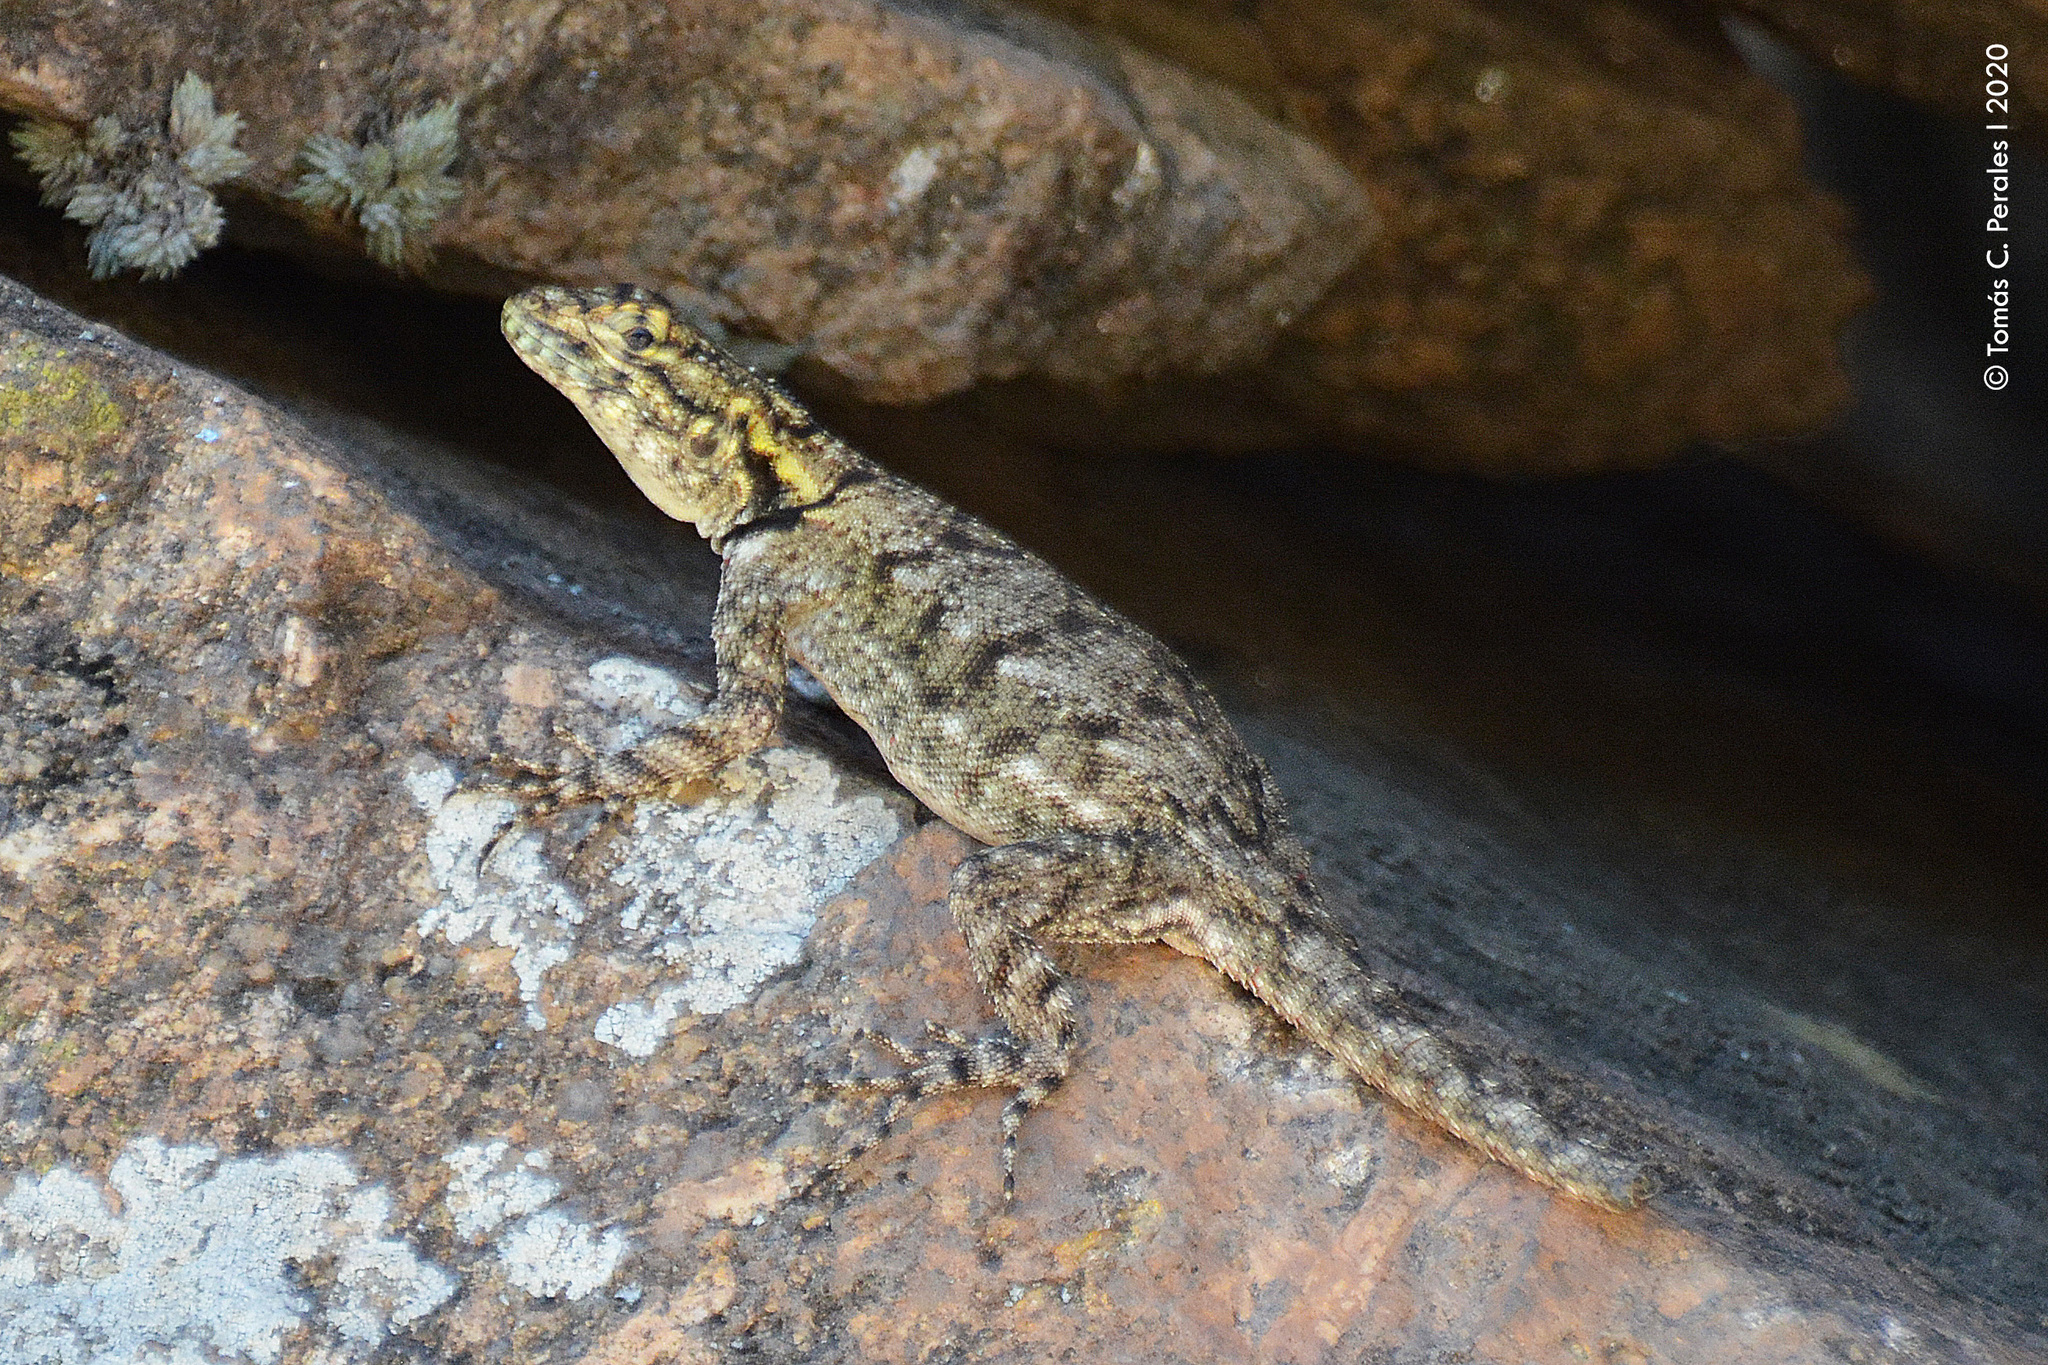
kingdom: Animalia
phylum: Chordata
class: Squamata
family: Tropiduridae
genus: Tropidurus
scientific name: Tropidurus spinulosus
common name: Spiny lava lizard
